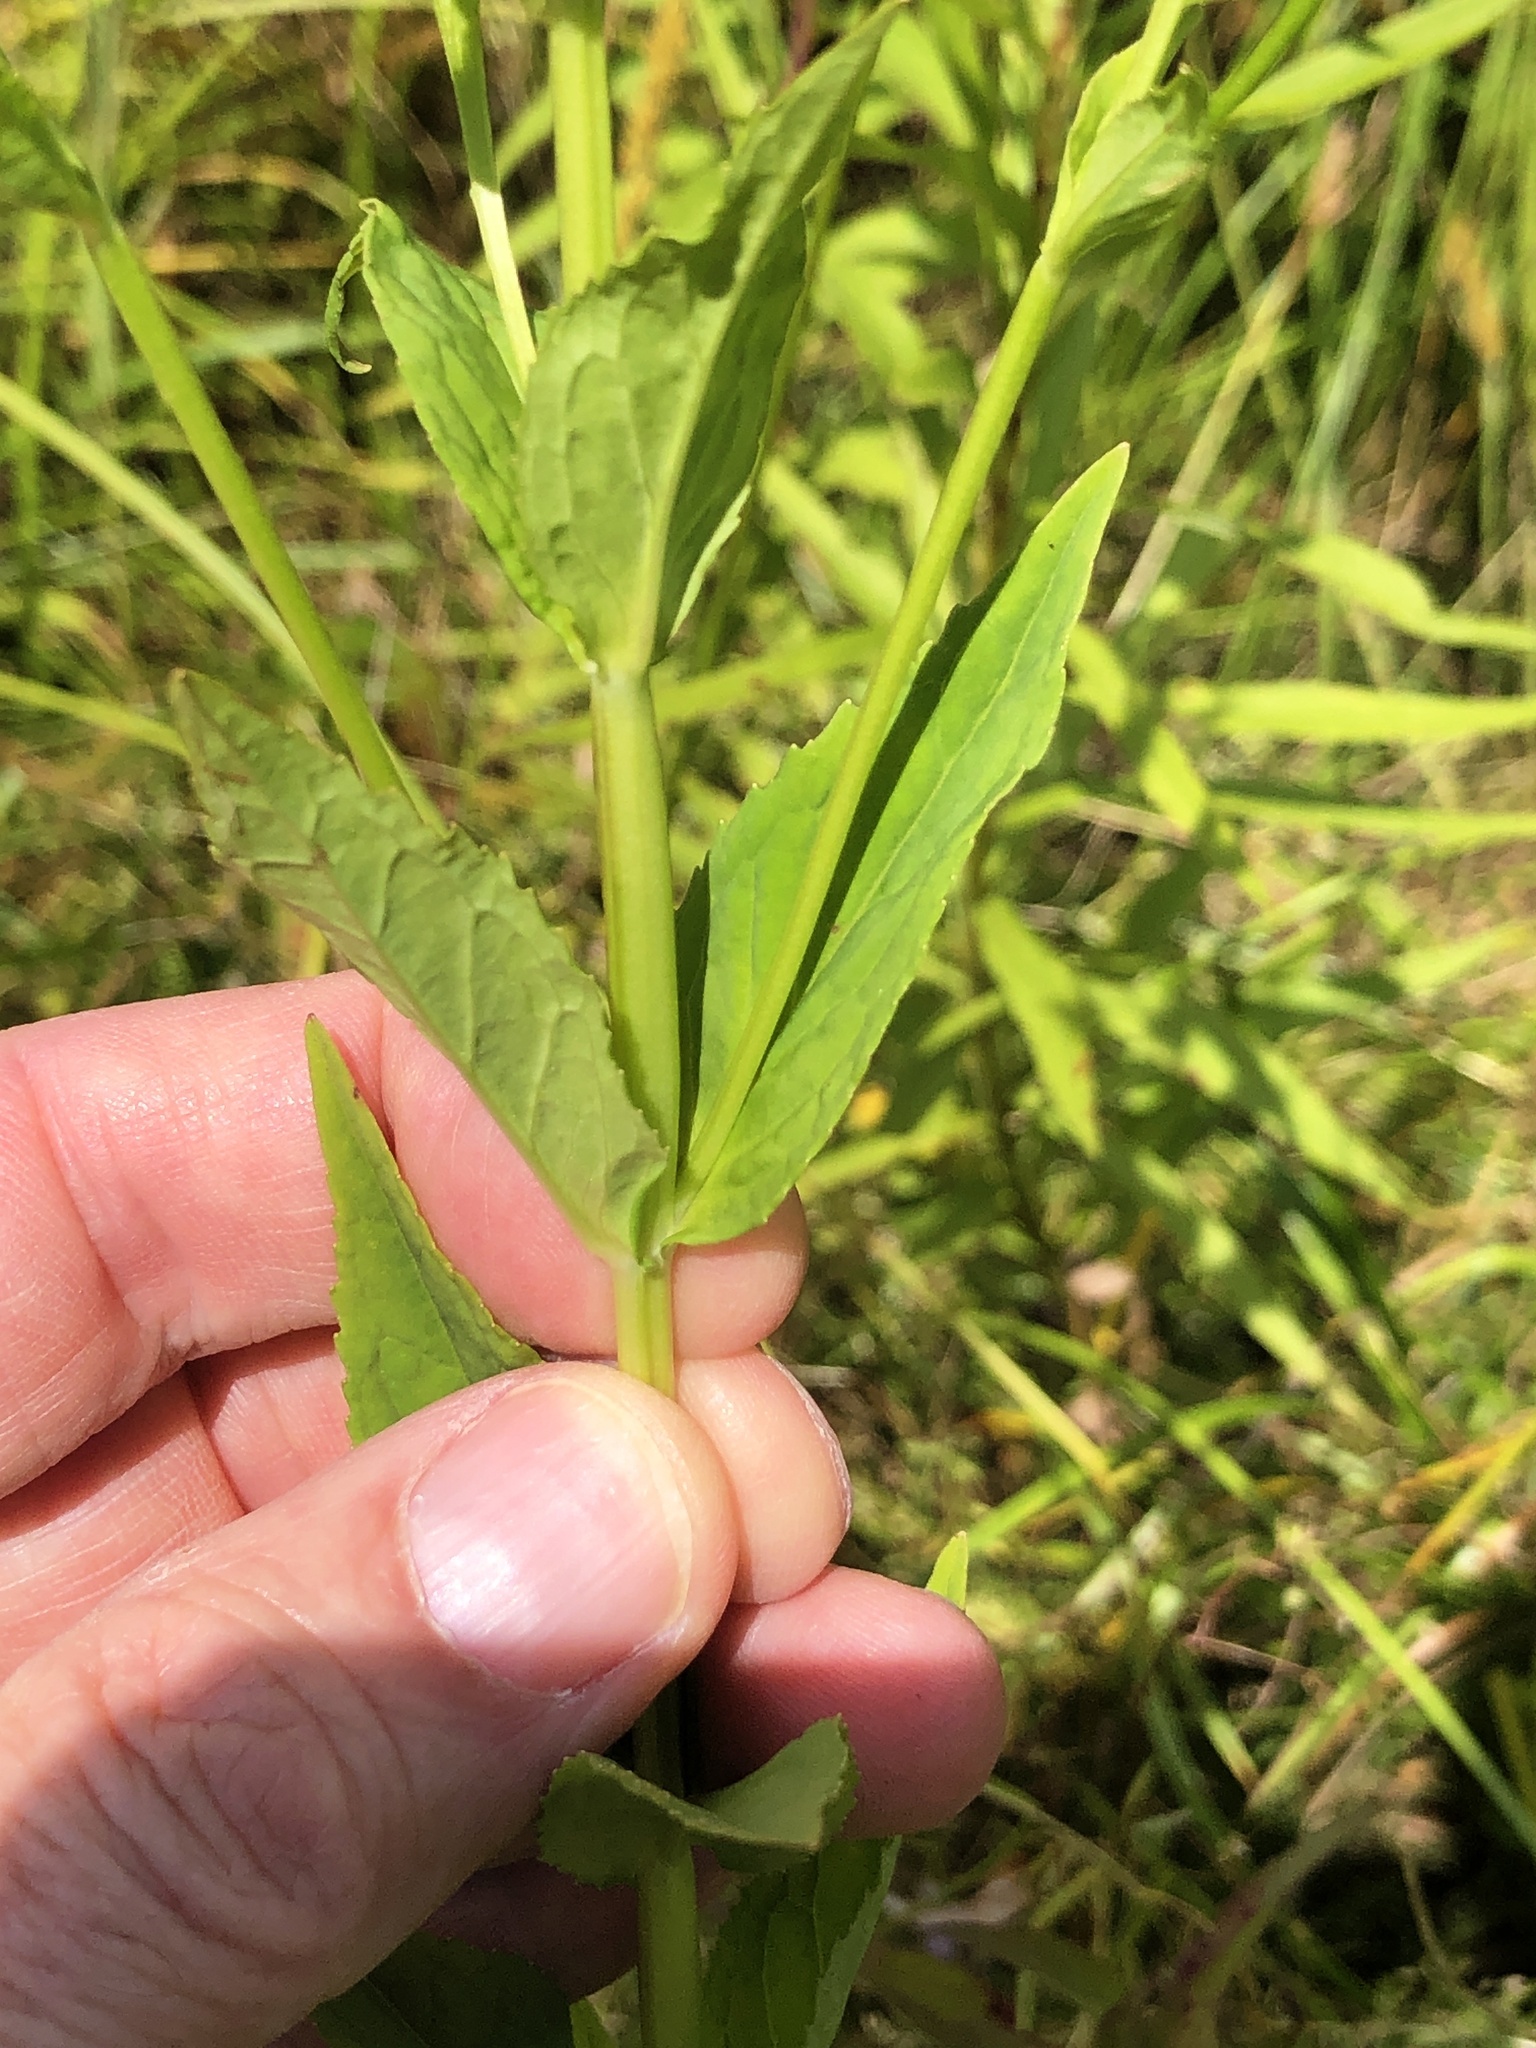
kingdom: Plantae
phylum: Tracheophyta
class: Magnoliopsida
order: Lamiales
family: Phrymaceae
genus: Mimulus
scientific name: Mimulus ringens
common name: Allegheny monkeyflower
